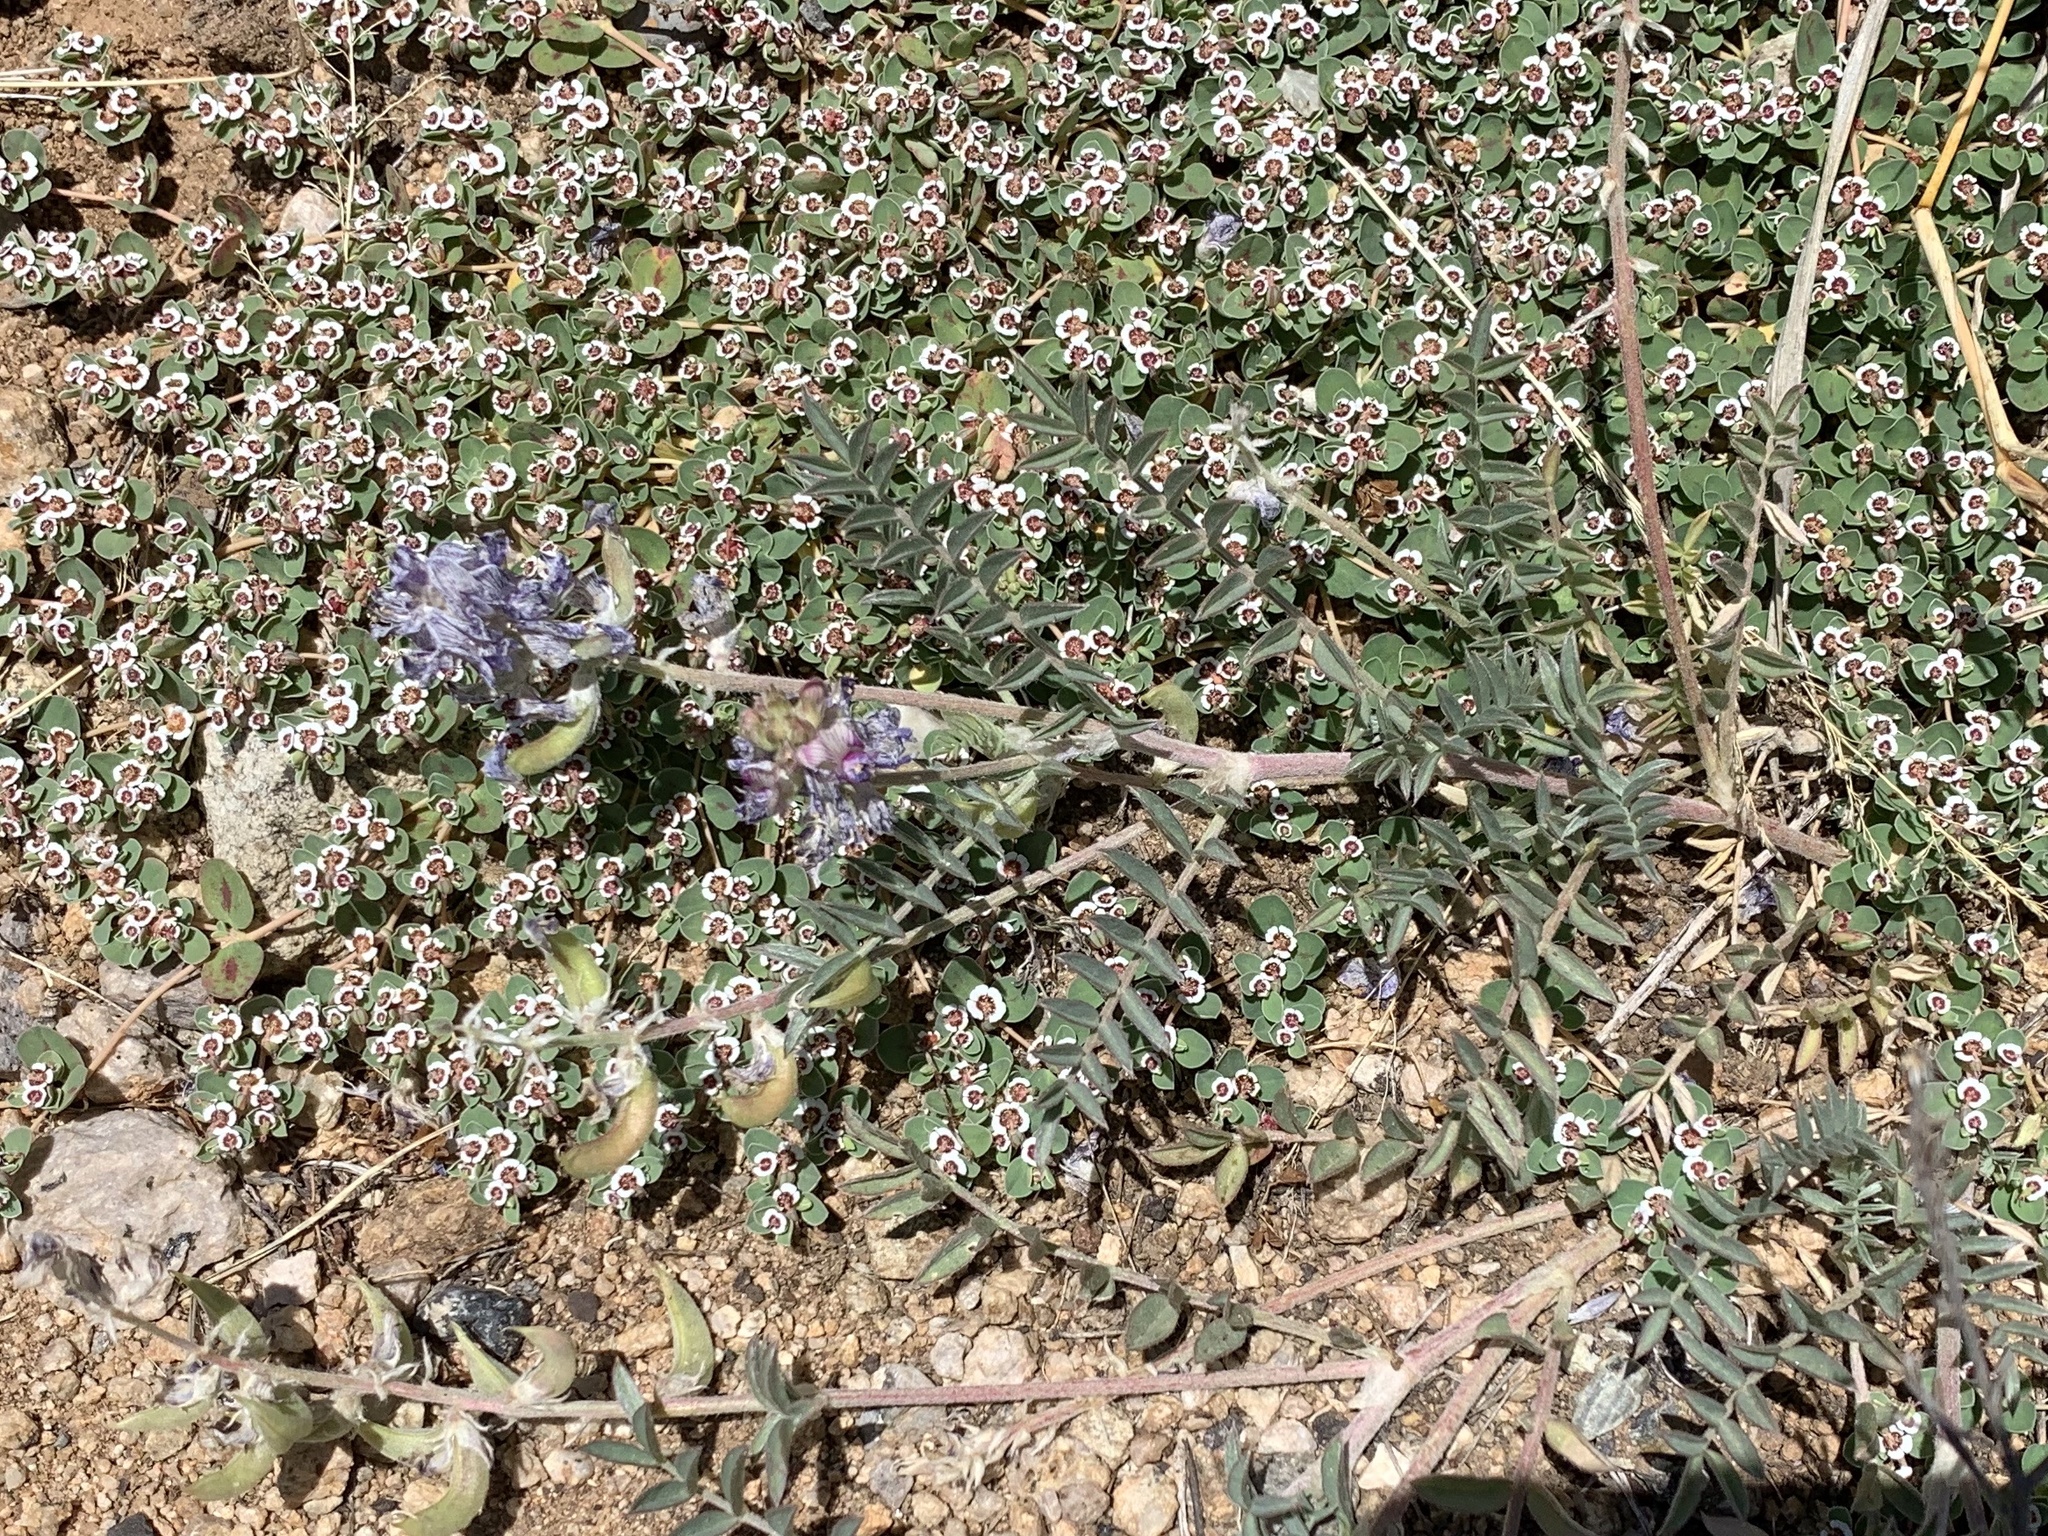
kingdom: Plantae
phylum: Tracheophyta
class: Magnoliopsida
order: Fabales
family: Fabaceae
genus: Astragalus
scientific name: Astragalus emoryanus
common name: Emory's milk-vetch
